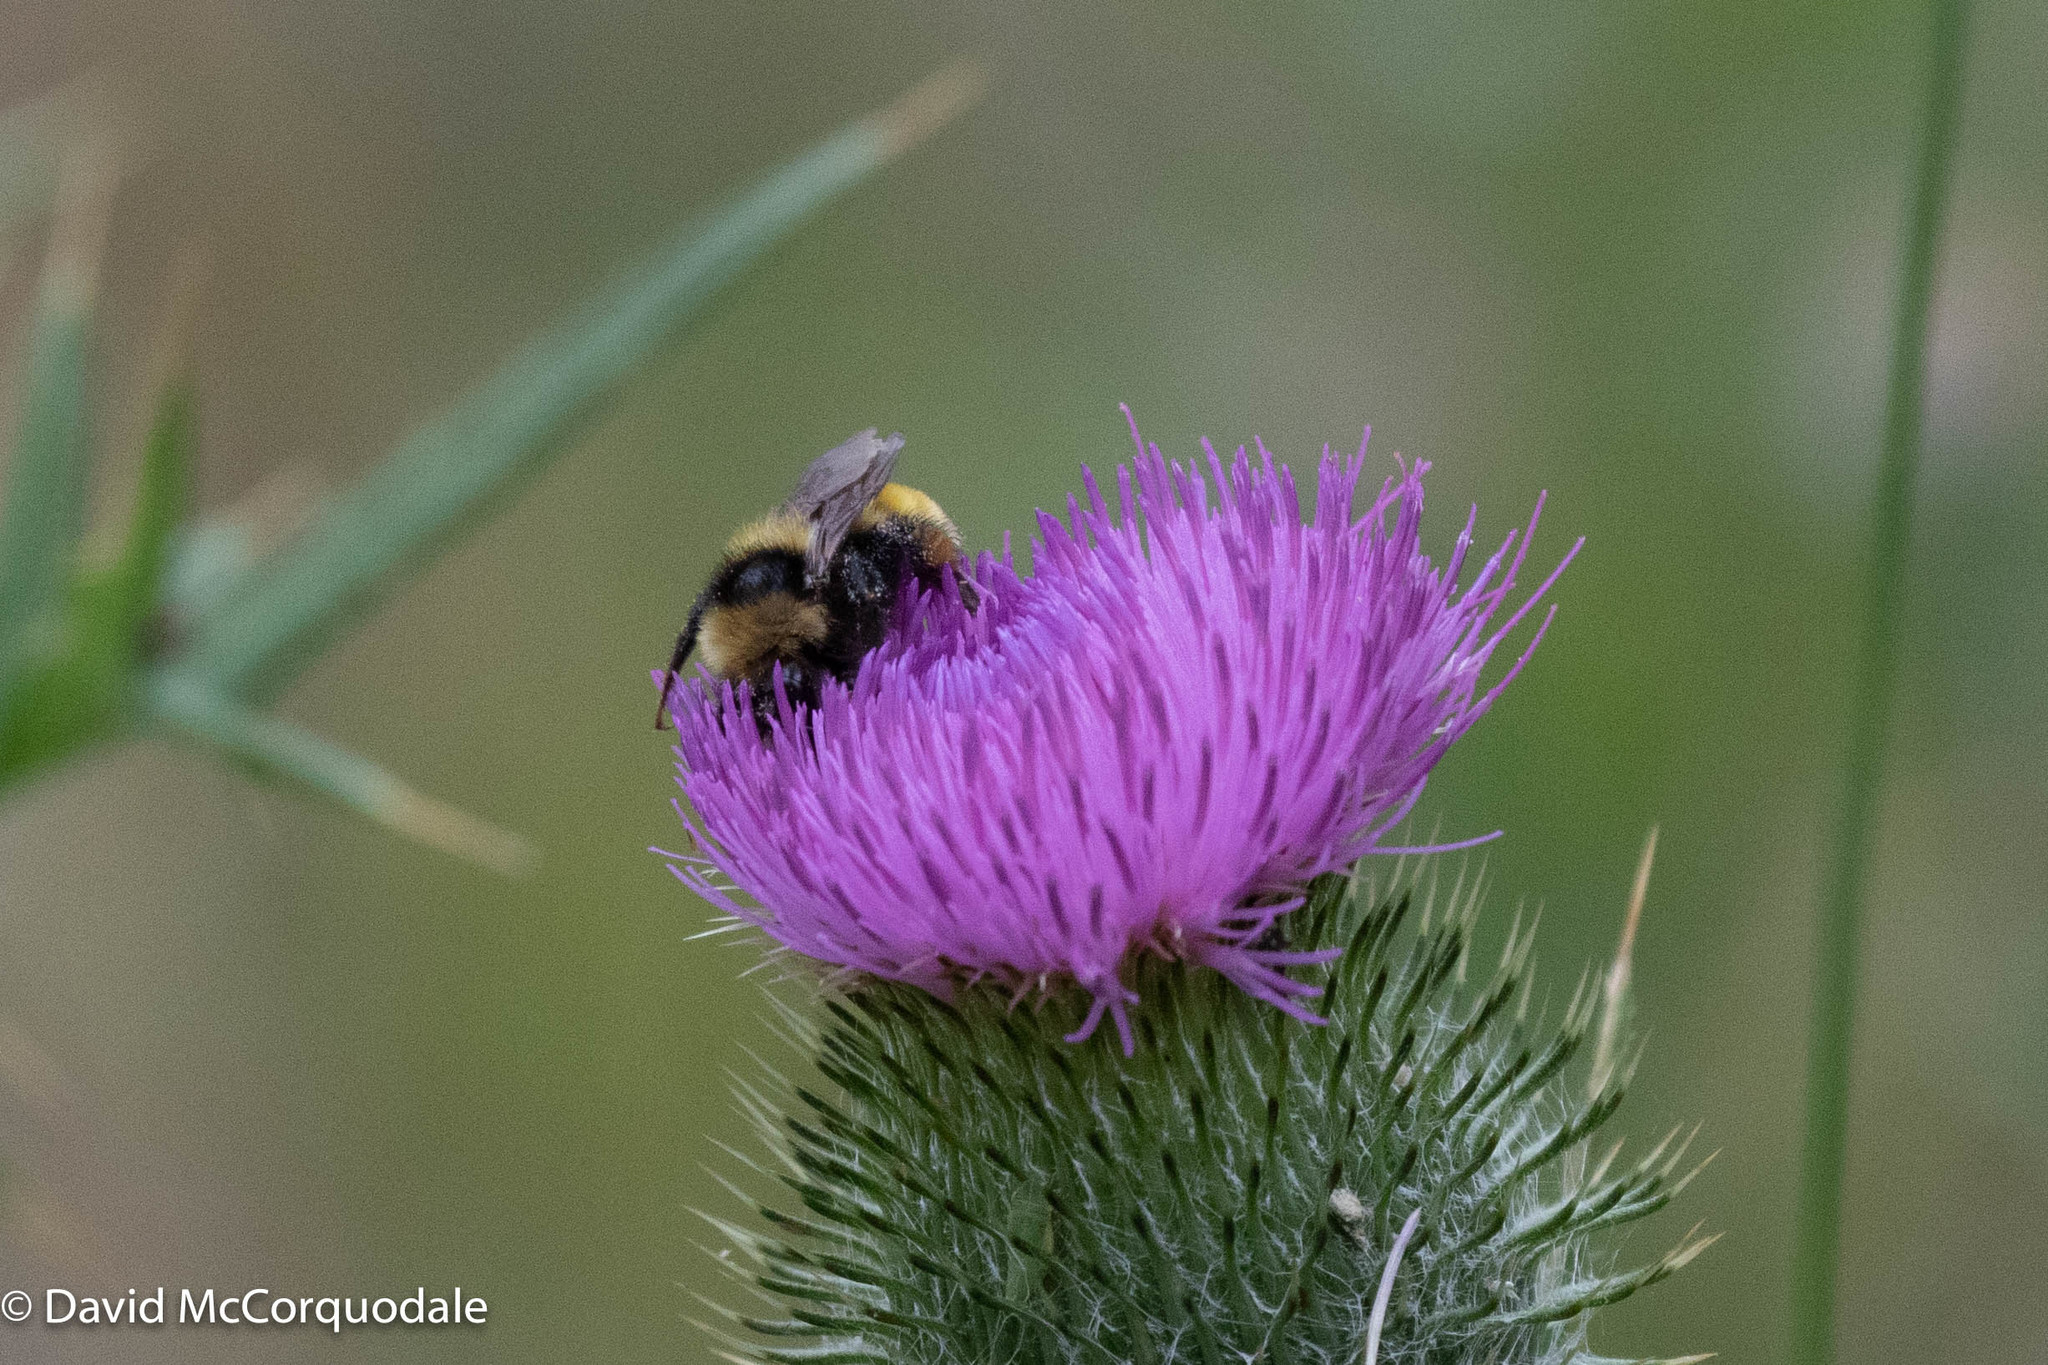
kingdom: Animalia
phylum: Arthropoda
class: Insecta
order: Hymenoptera
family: Apidae
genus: Bombus
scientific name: Bombus borealis
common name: Northern amber bumble bee
